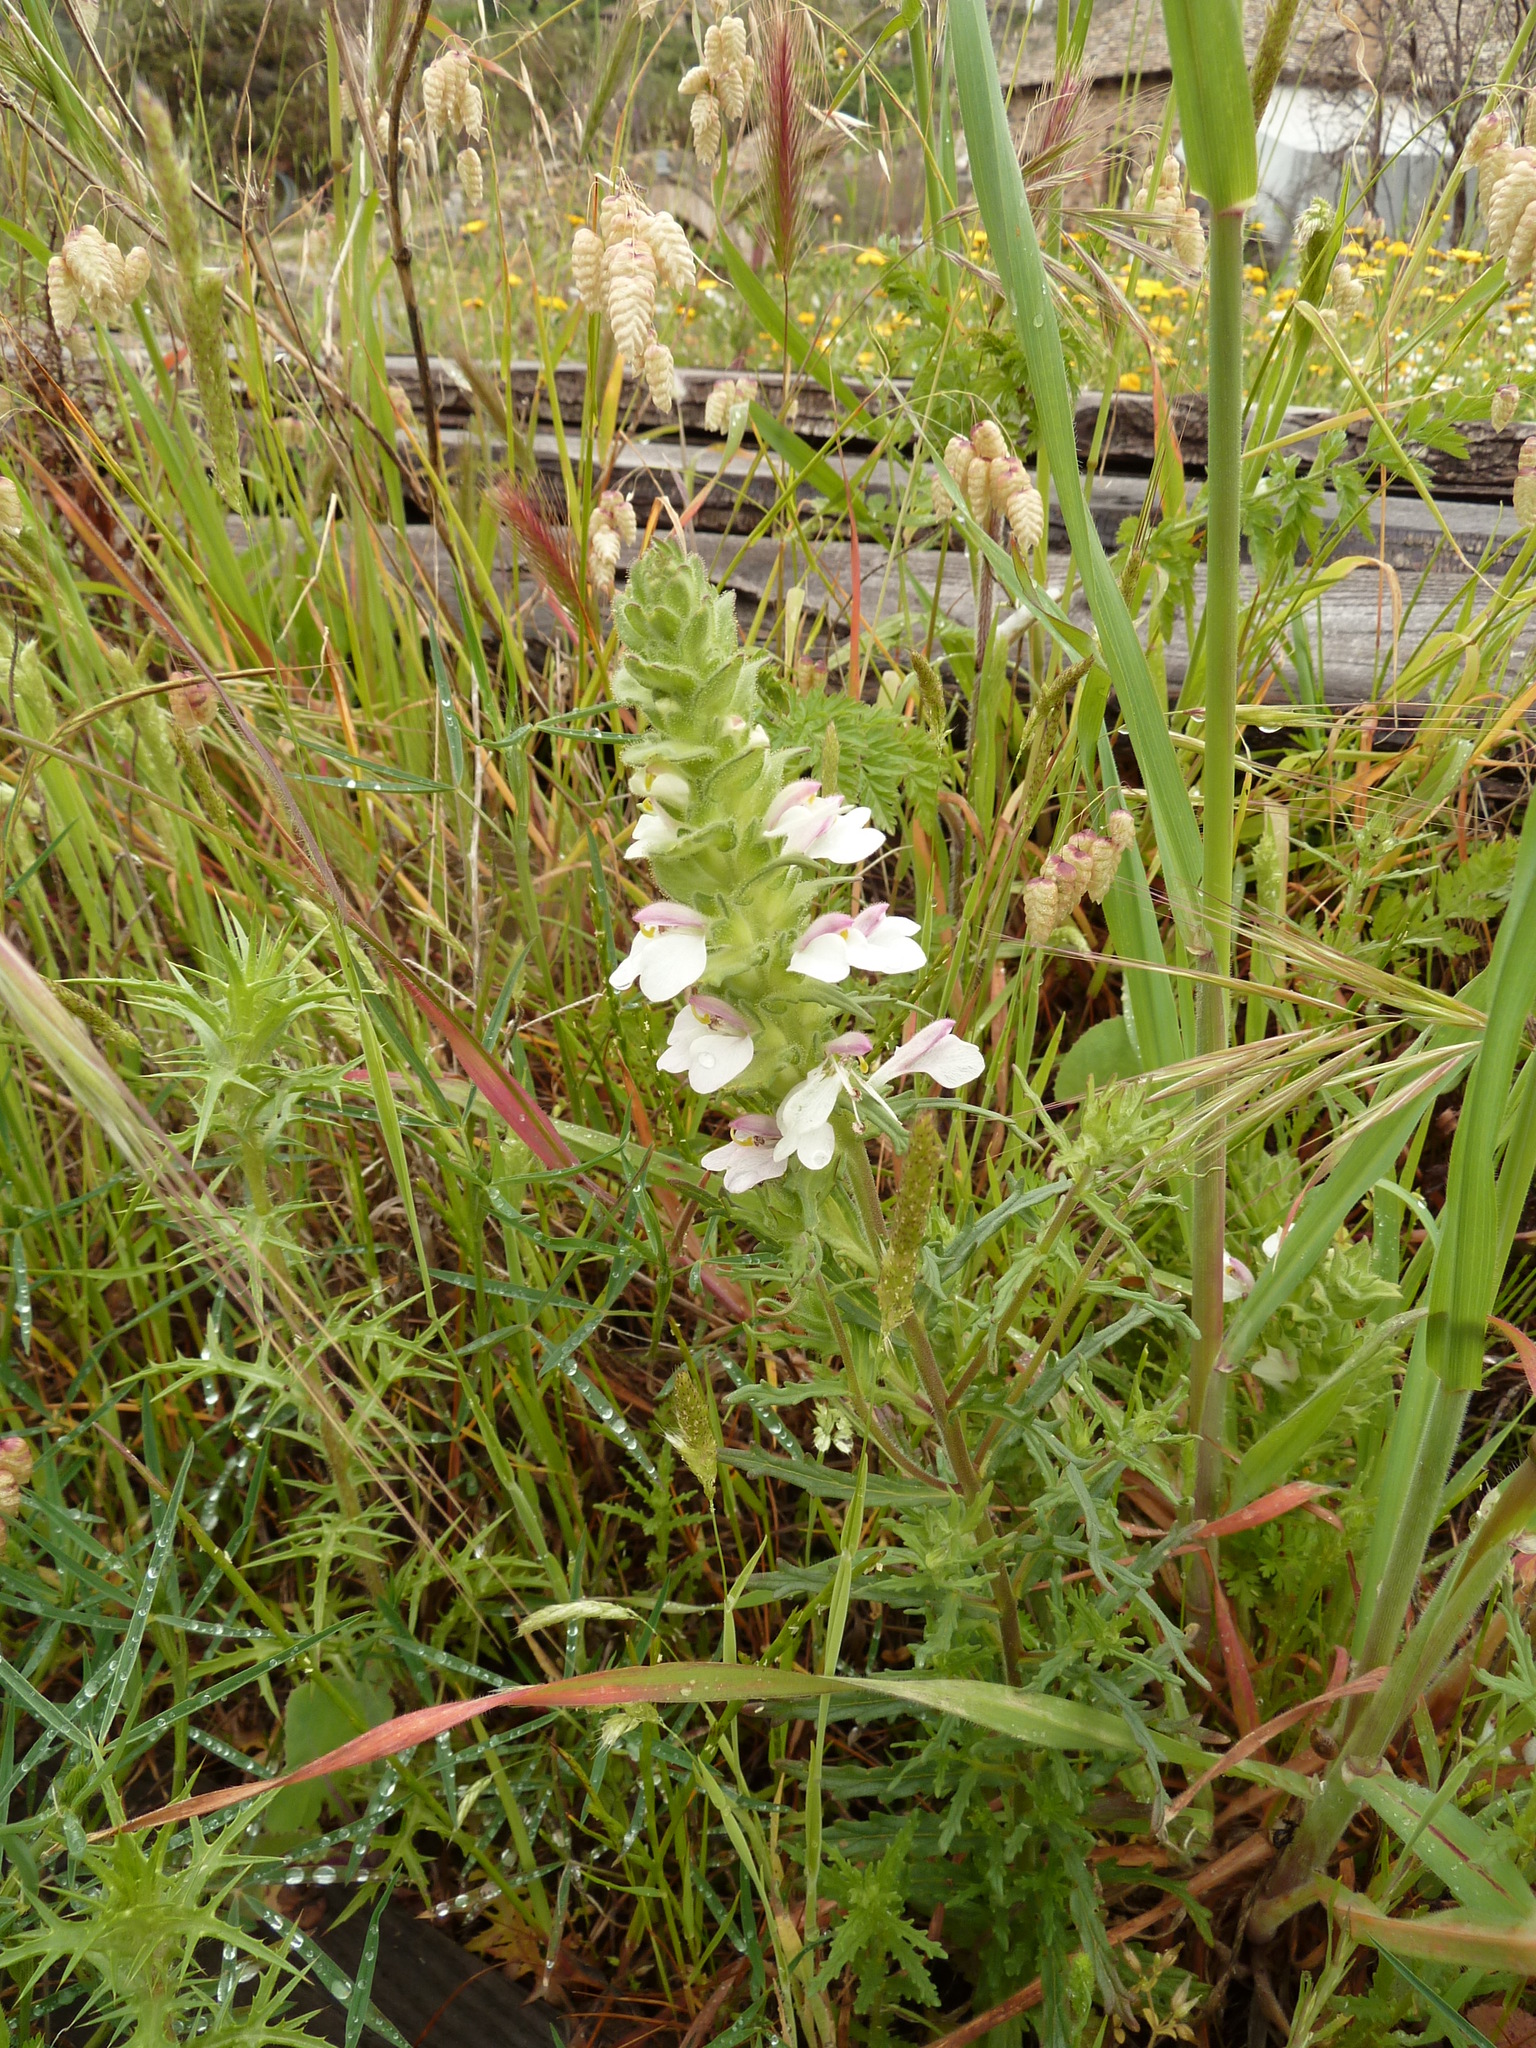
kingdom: Plantae
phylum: Tracheophyta
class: Magnoliopsida
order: Lamiales
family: Orobanchaceae
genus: Bellardia
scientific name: Bellardia trixago
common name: Mediterranean lineseed
